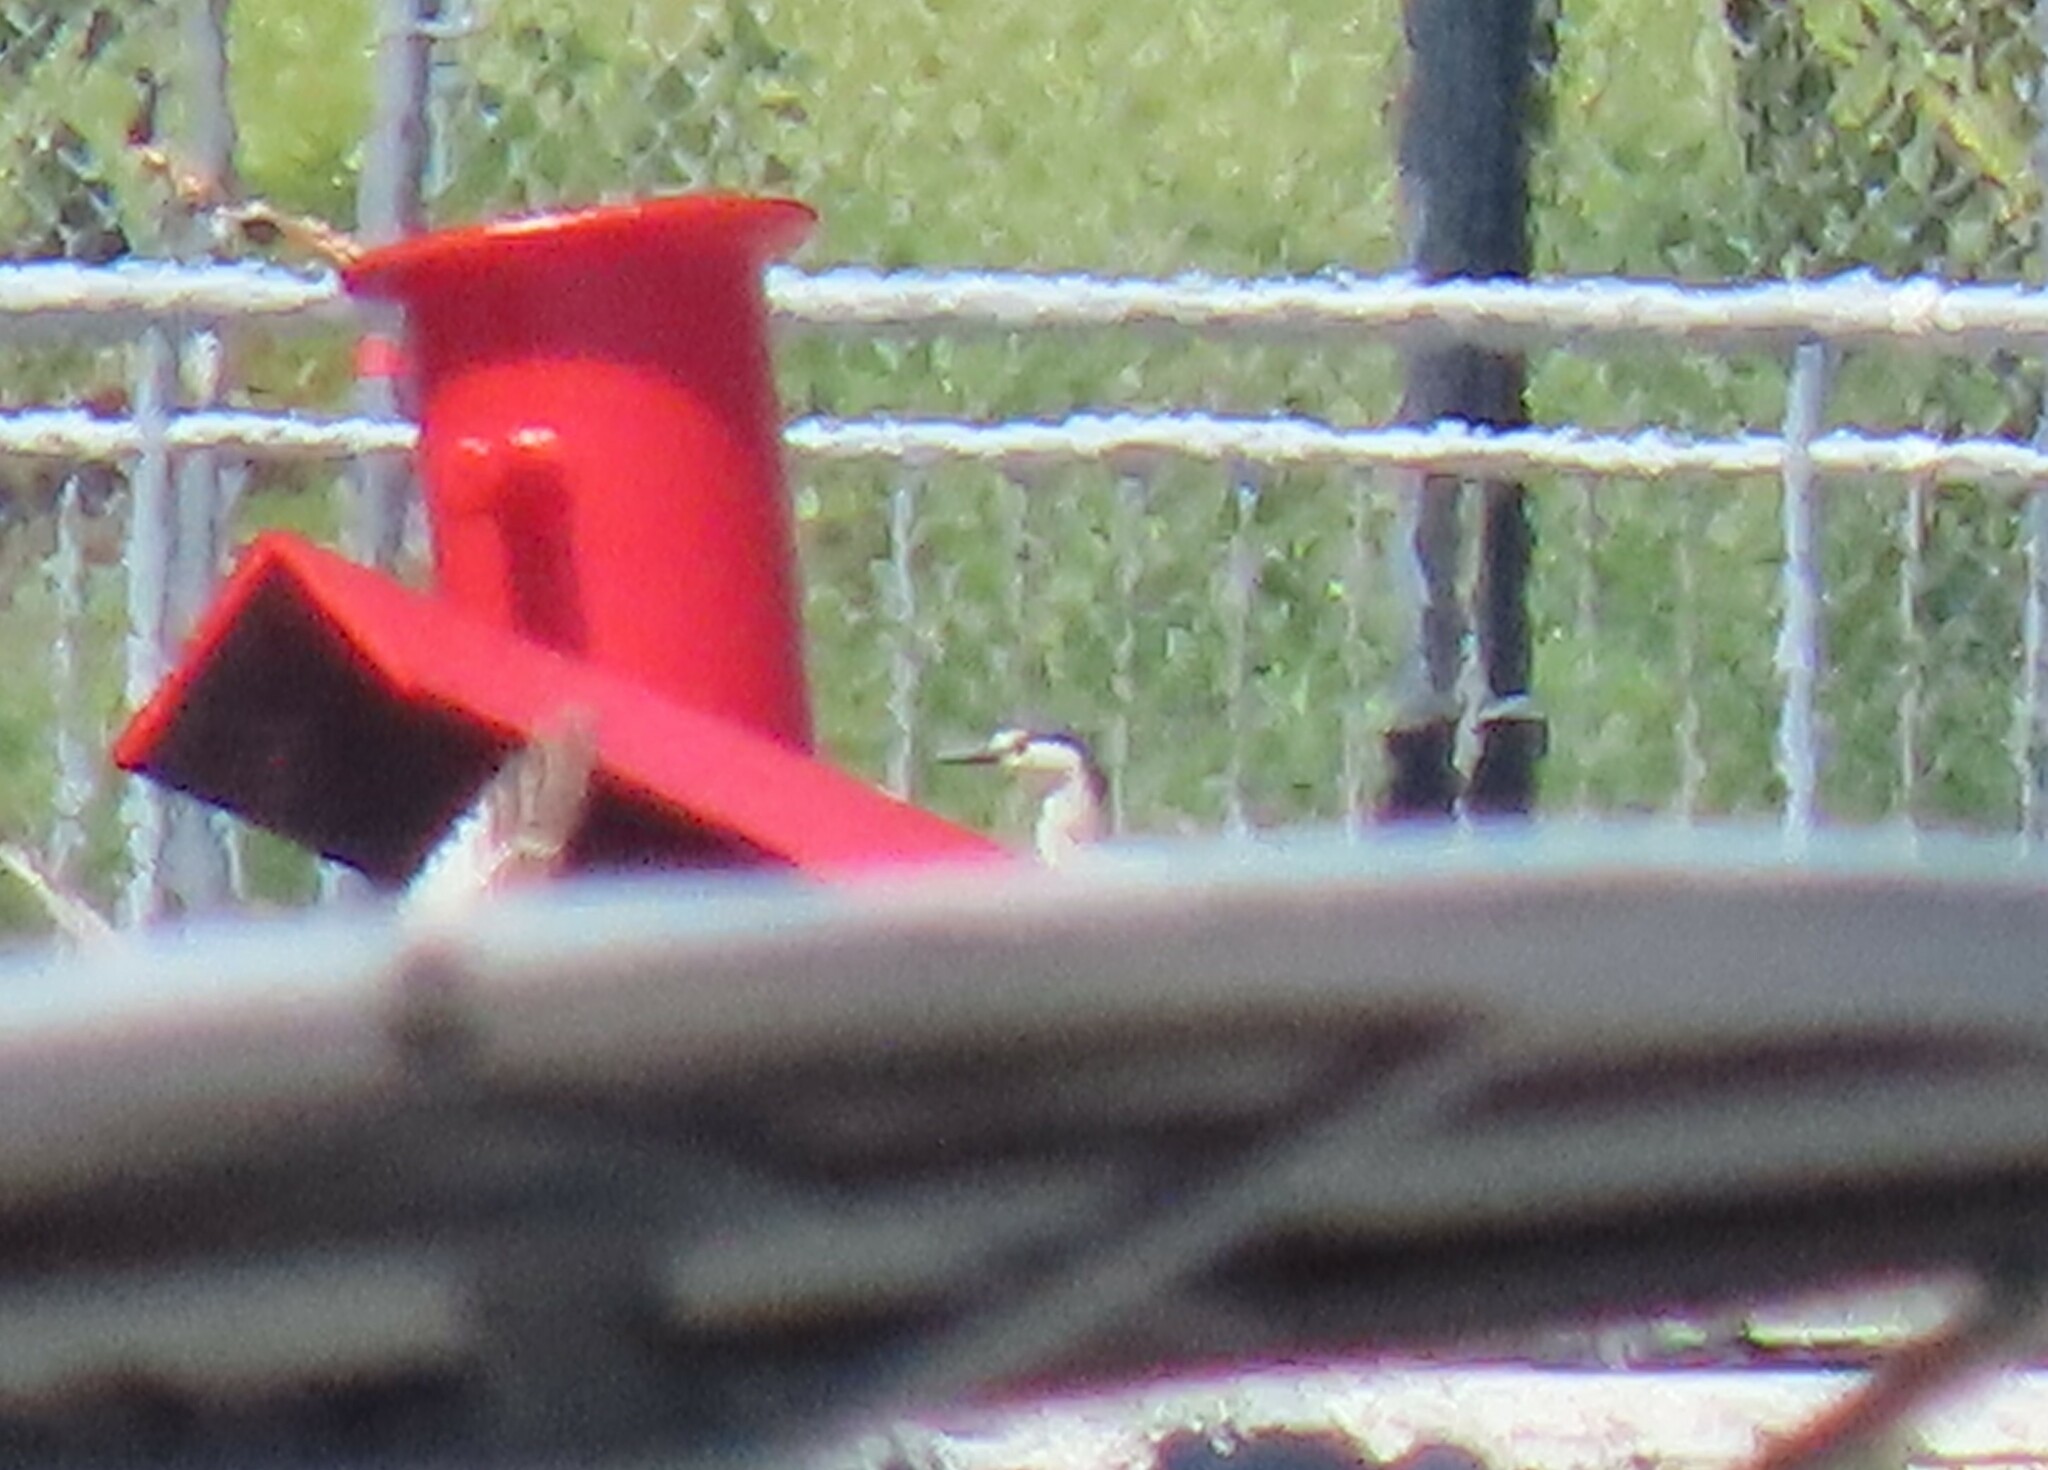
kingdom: Animalia
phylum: Chordata
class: Aves
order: Pelecaniformes
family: Ardeidae
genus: Nycticorax
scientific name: Nycticorax nycticorax
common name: Black-crowned night heron
